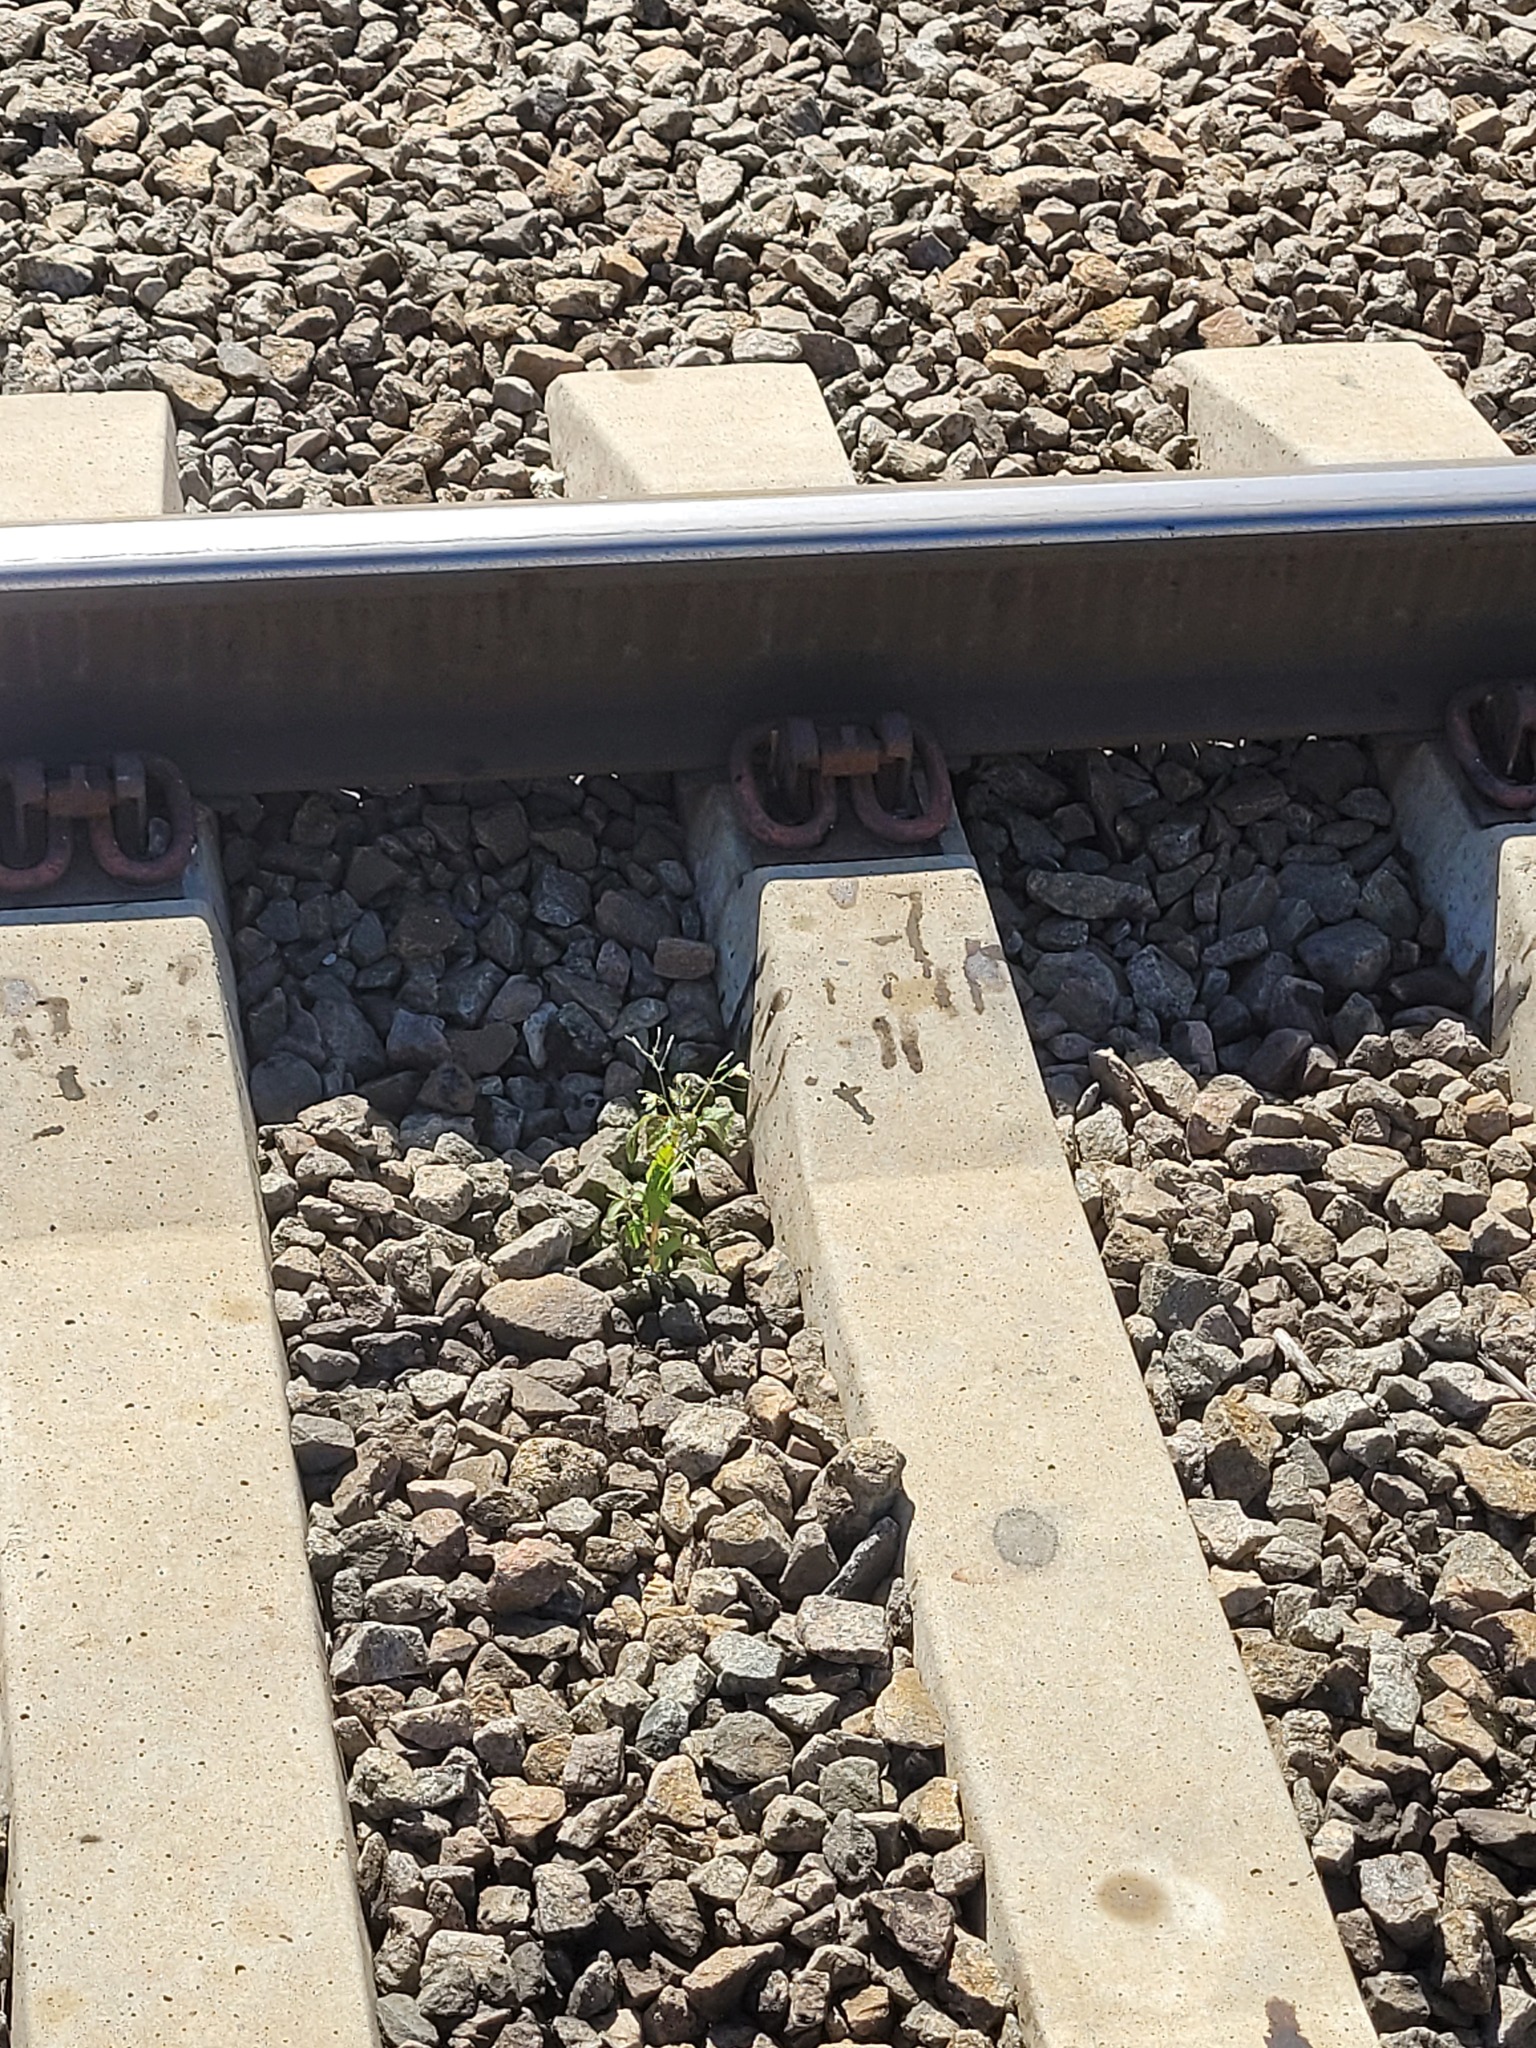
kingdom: Plantae
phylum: Tracheophyta
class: Magnoliopsida
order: Ericales
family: Balsaminaceae
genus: Impatiens
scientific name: Impatiens parviflora
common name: Small balsam
